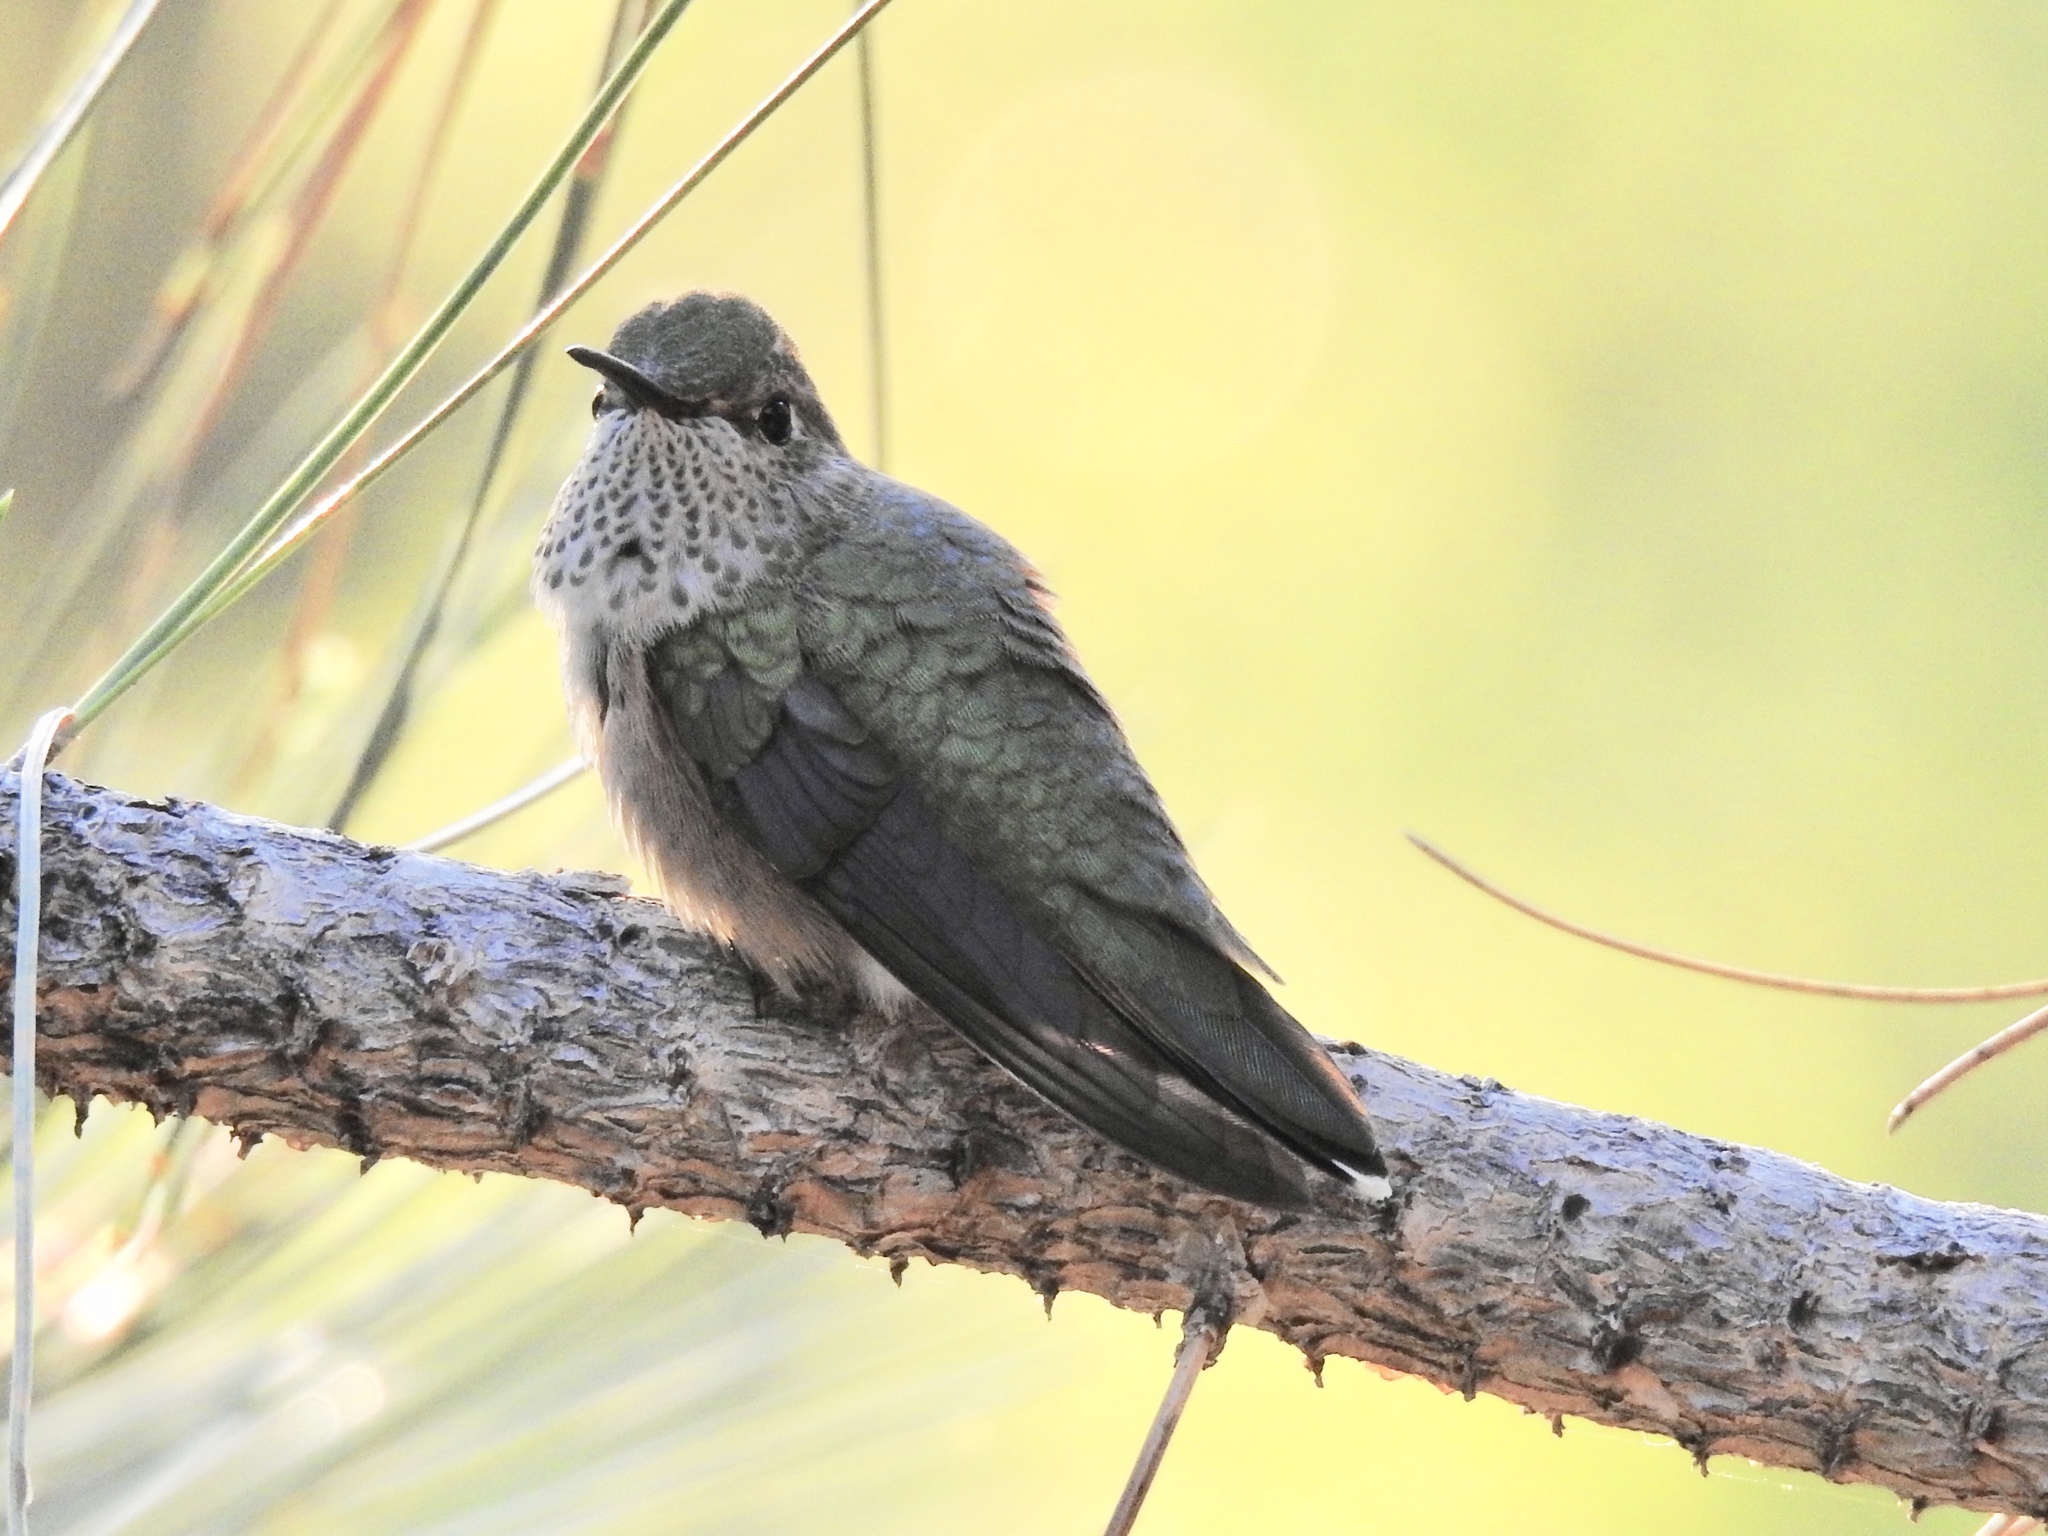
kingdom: Animalia
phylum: Chordata
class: Aves
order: Apodiformes
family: Trochilidae
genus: Selasphorus
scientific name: Selasphorus platycercus
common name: Broad-tailed hummingbird
